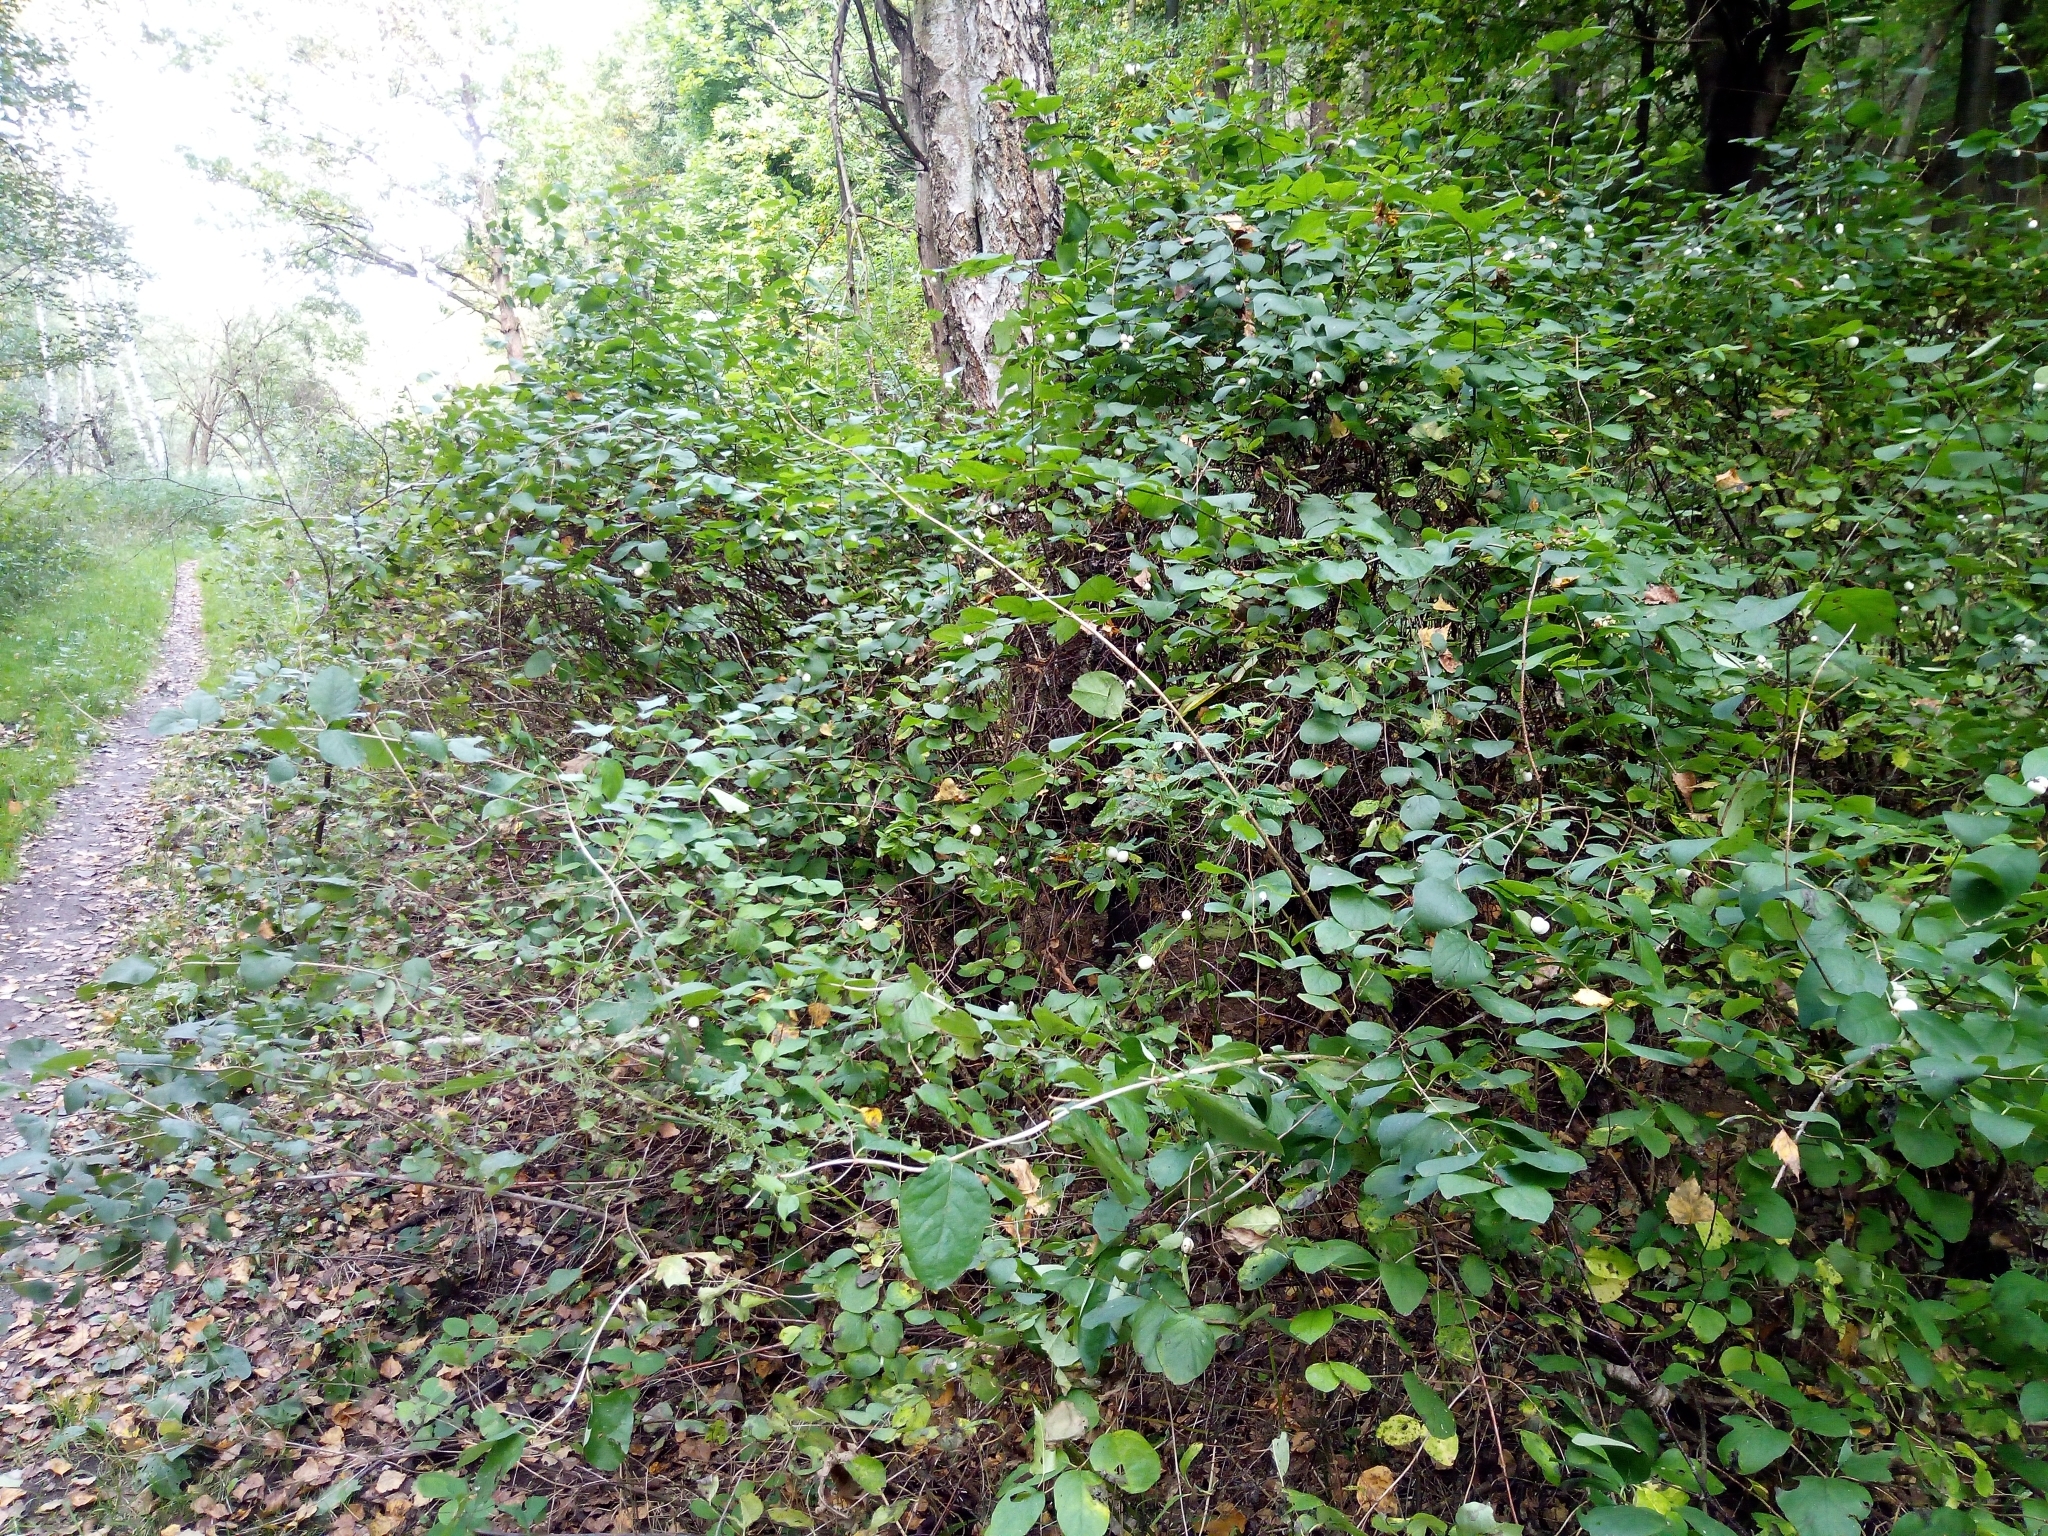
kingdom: Plantae
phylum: Tracheophyta
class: Magnoliopsida
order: Dipsacales
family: Caprifoliaceae
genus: Symphoricarpos
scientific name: Symphoricarpos albus
